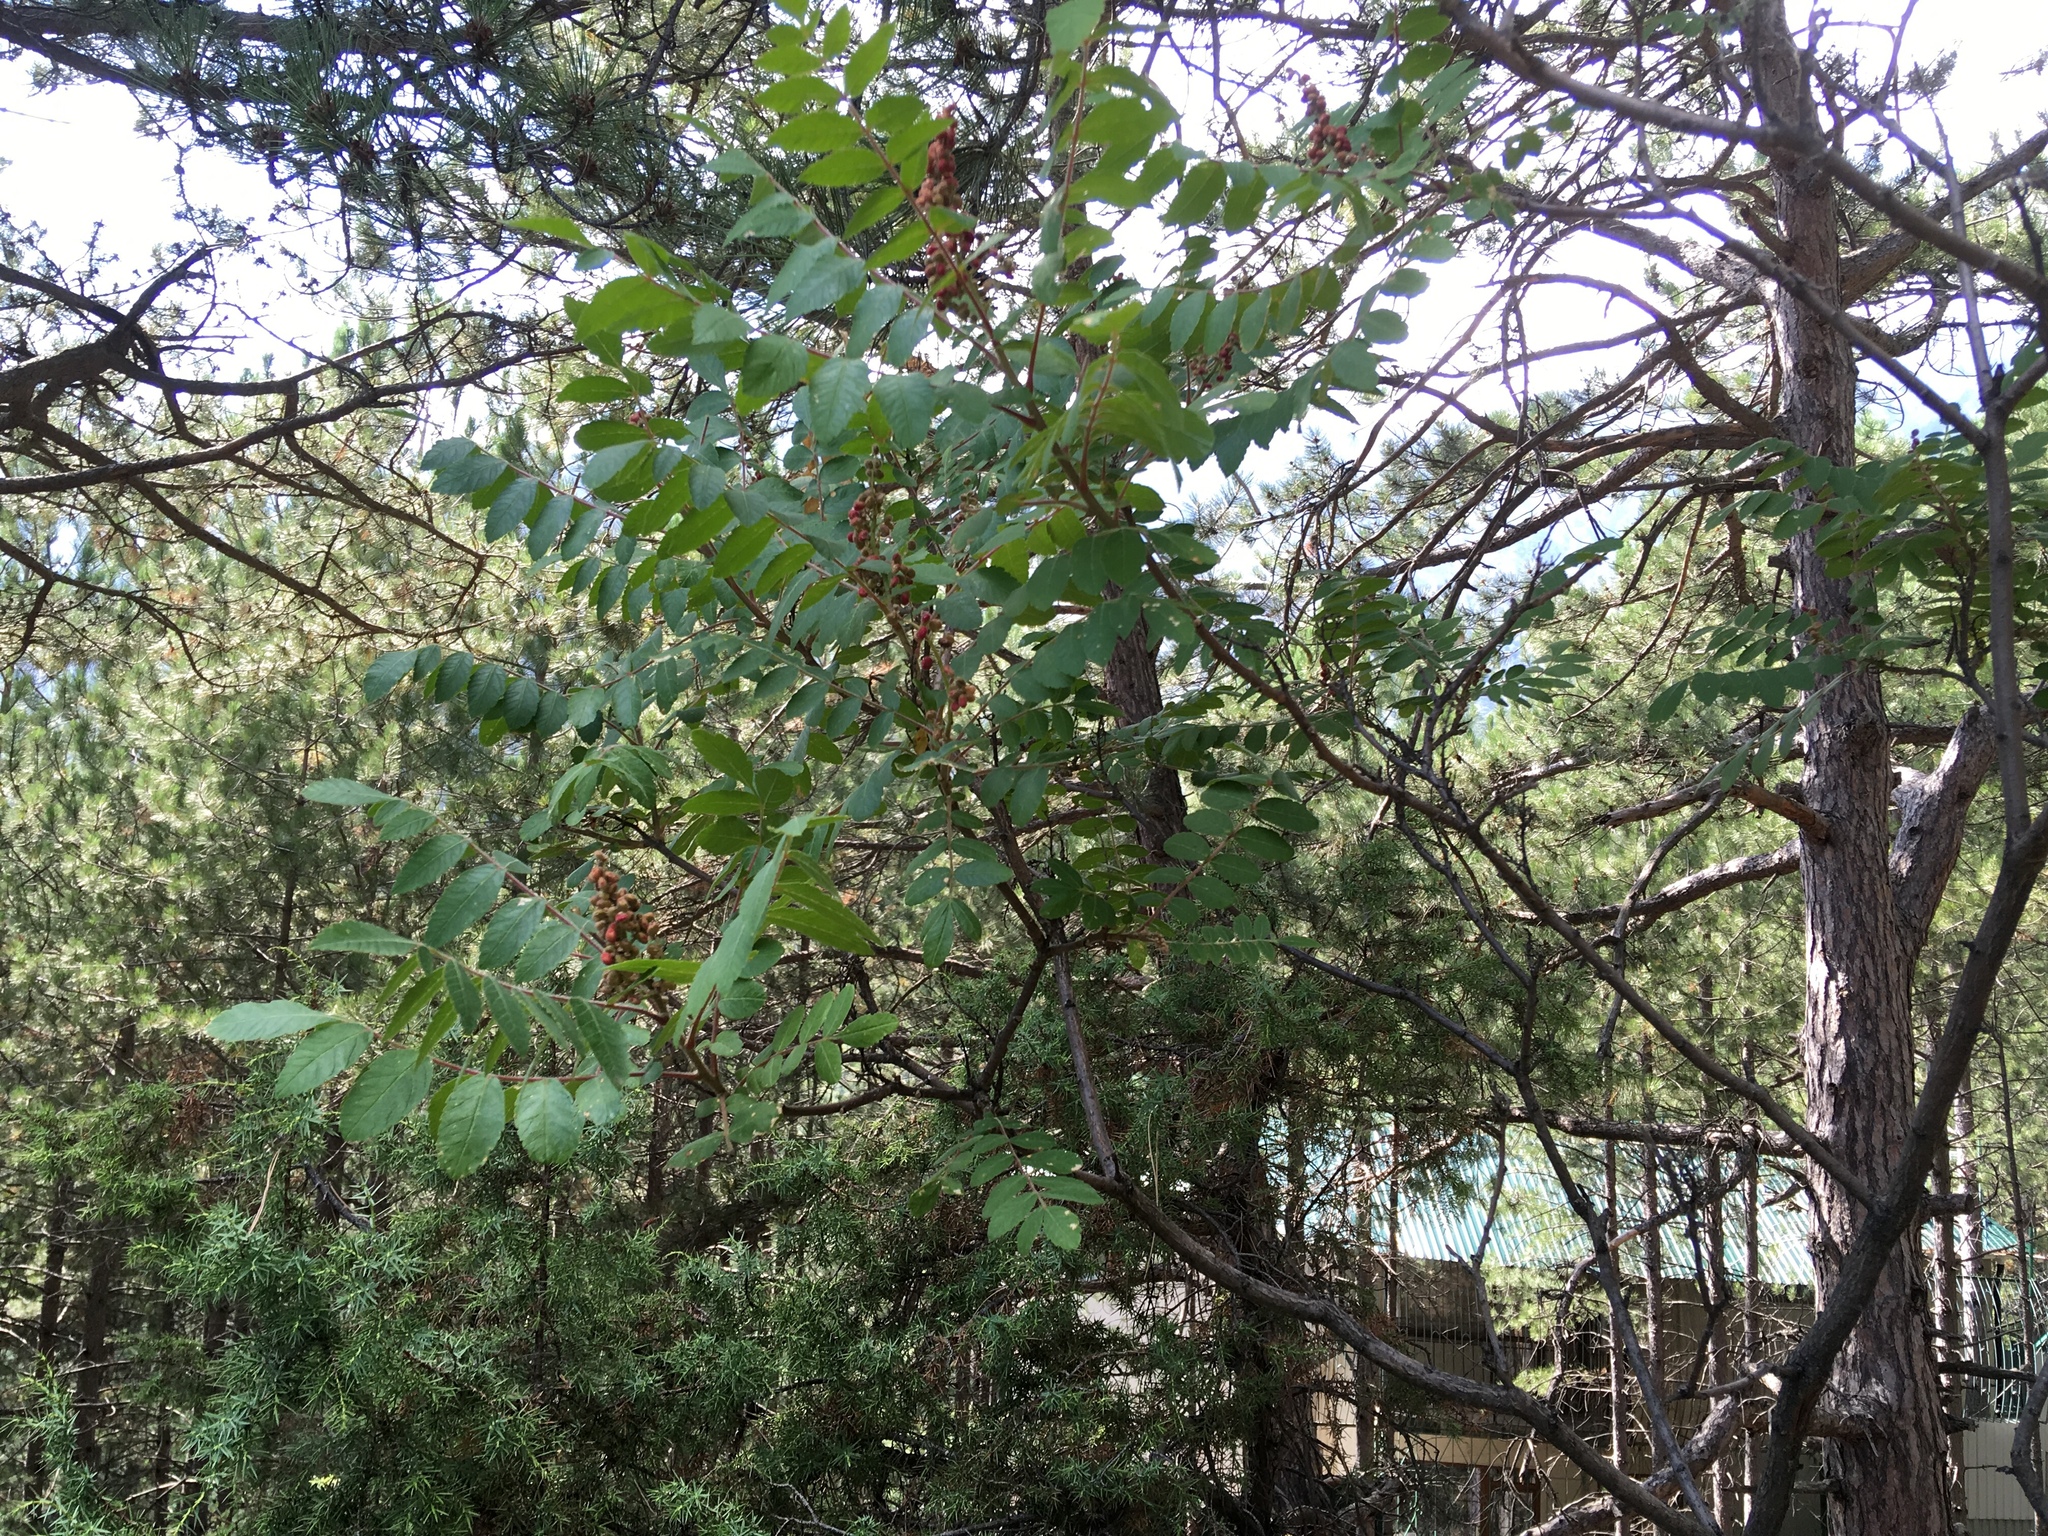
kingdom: Plantae
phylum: Tracheophyta
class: Magnoliopsida
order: Sapindales
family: Anacardiaceae
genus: Rhus
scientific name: Rhus coriaria
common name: Tanner's sumach
